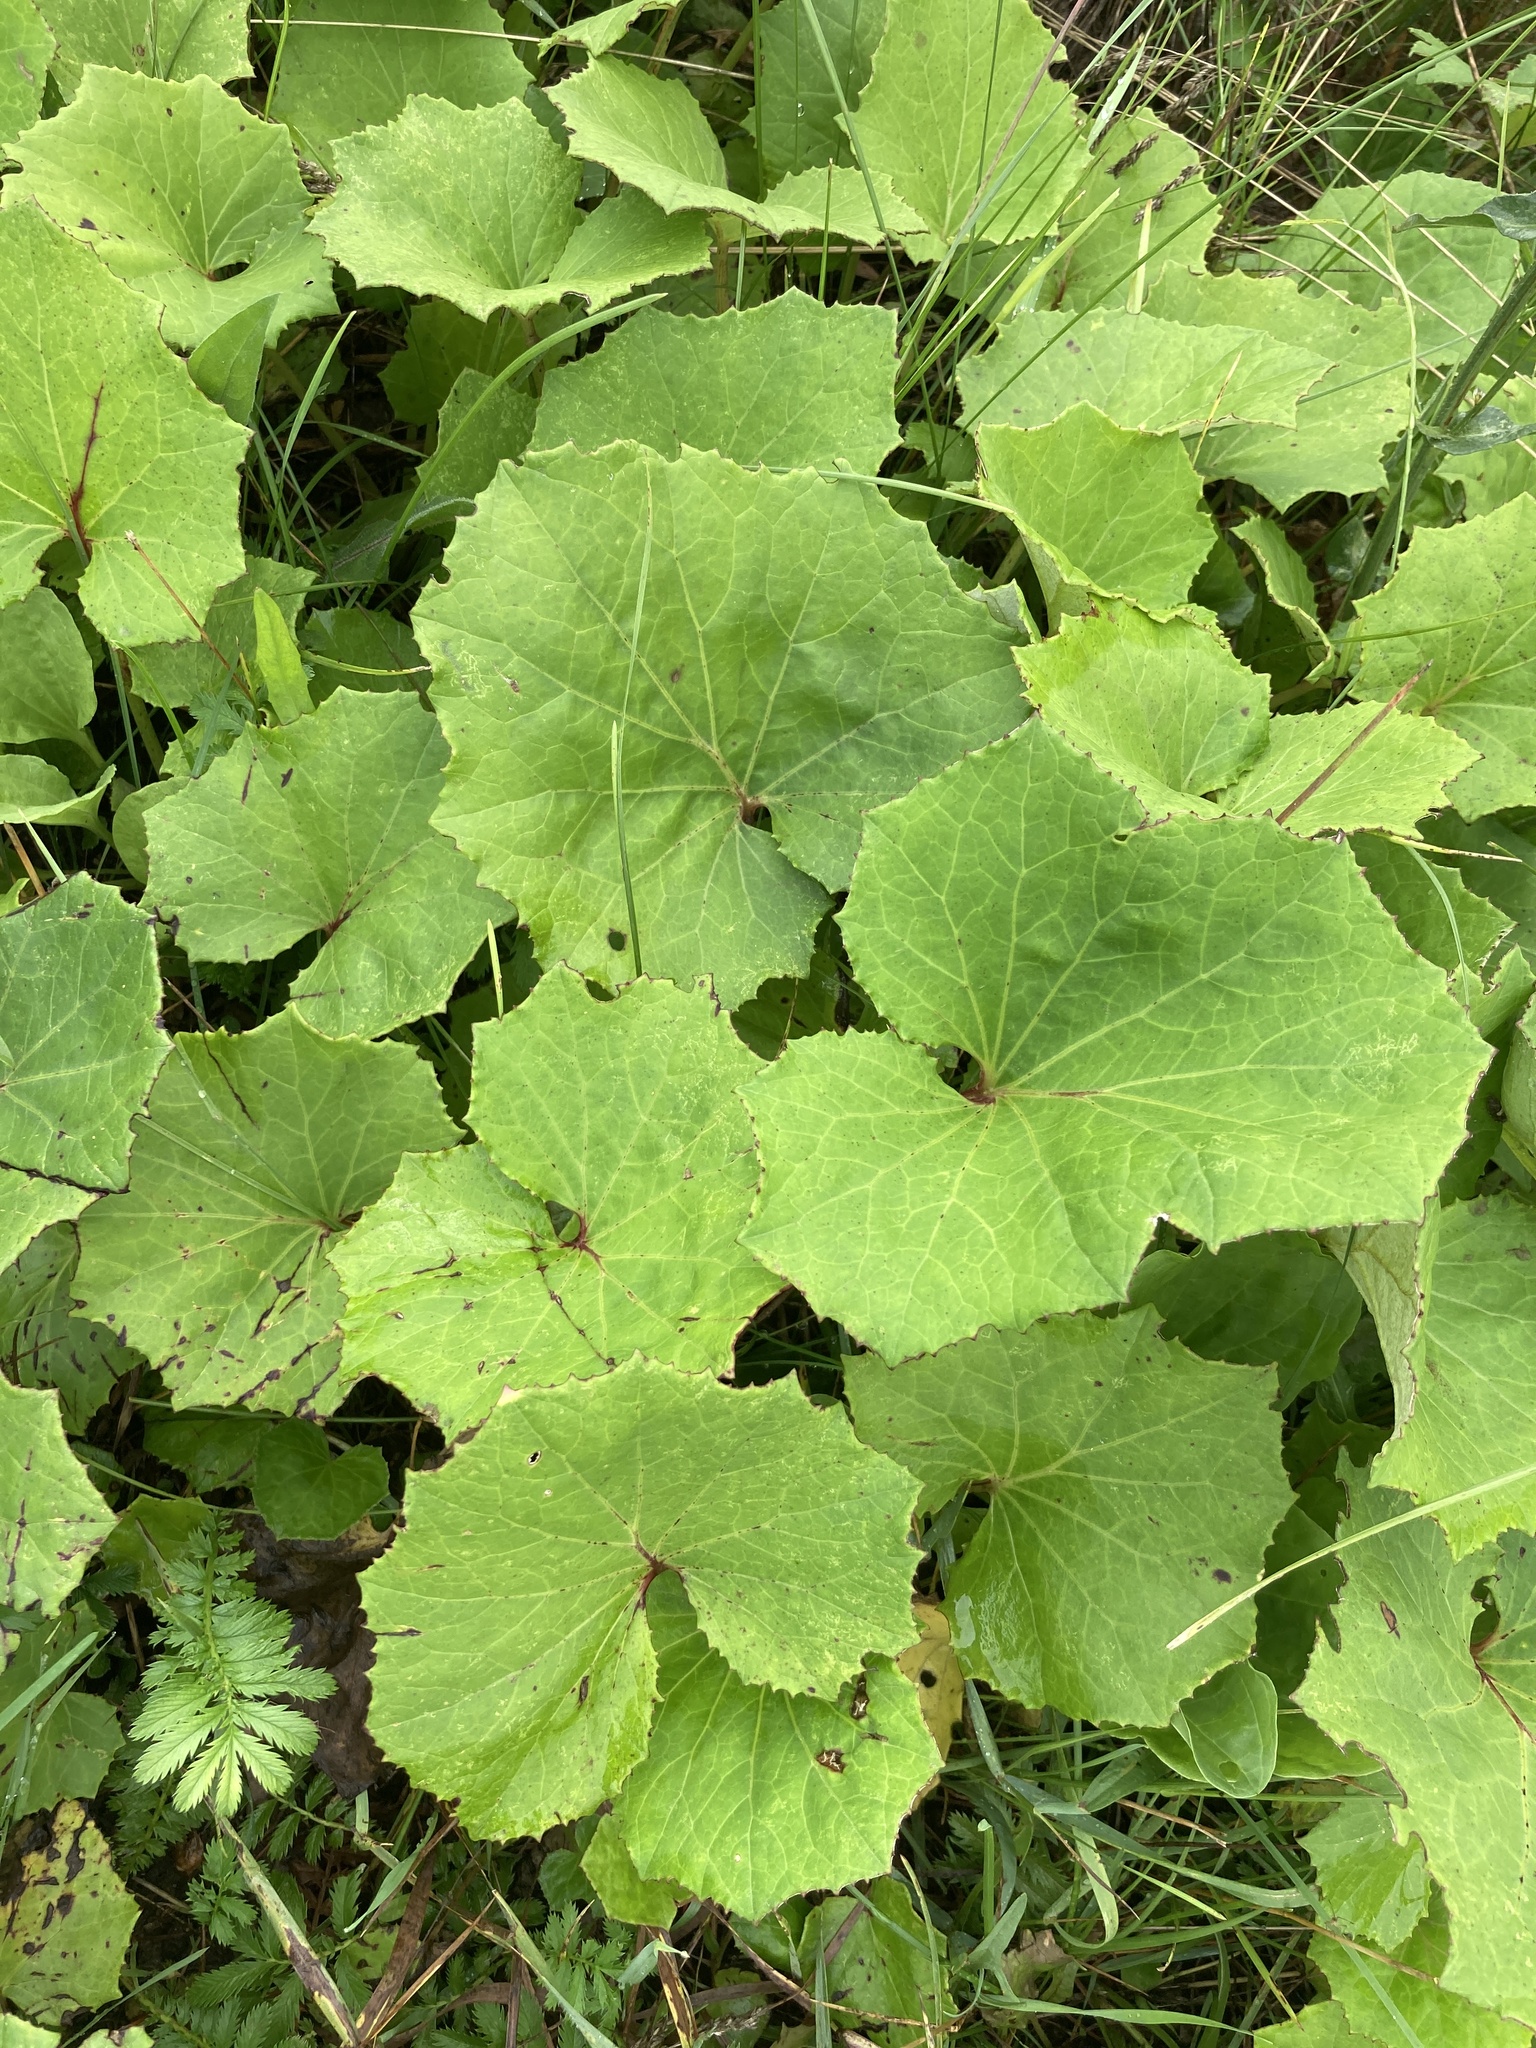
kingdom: Plantae
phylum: Tracheophyta
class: Magnoliopsida
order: Asterales
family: Asteraceae
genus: Tussilago
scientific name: Tussilago farfara
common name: Coltsfoot
